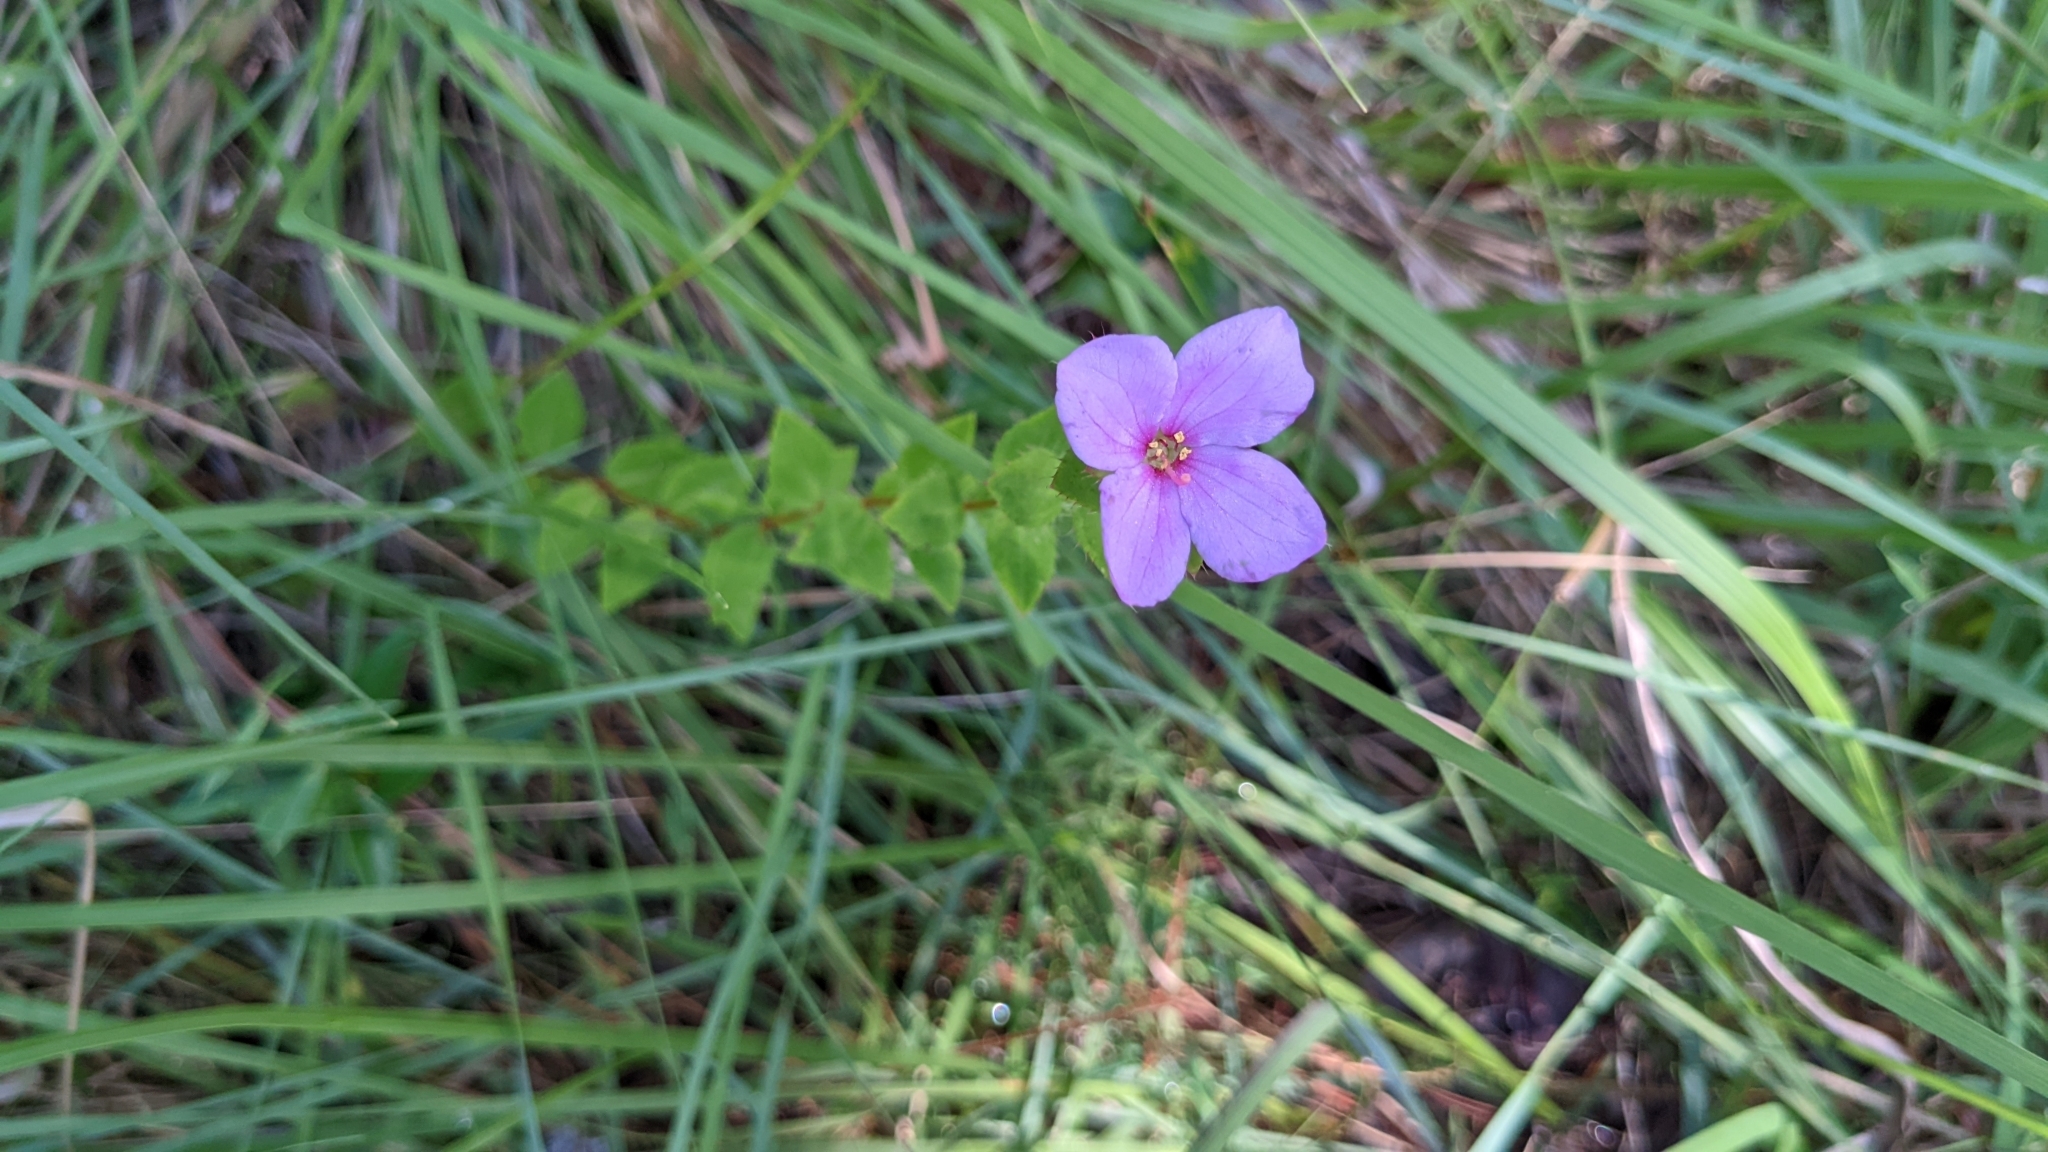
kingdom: Plantae
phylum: Tracheophyta
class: Magnoliopsida
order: Myrtales
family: Melastomataceae
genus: Rhexia
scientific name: Rhexia petiolata
